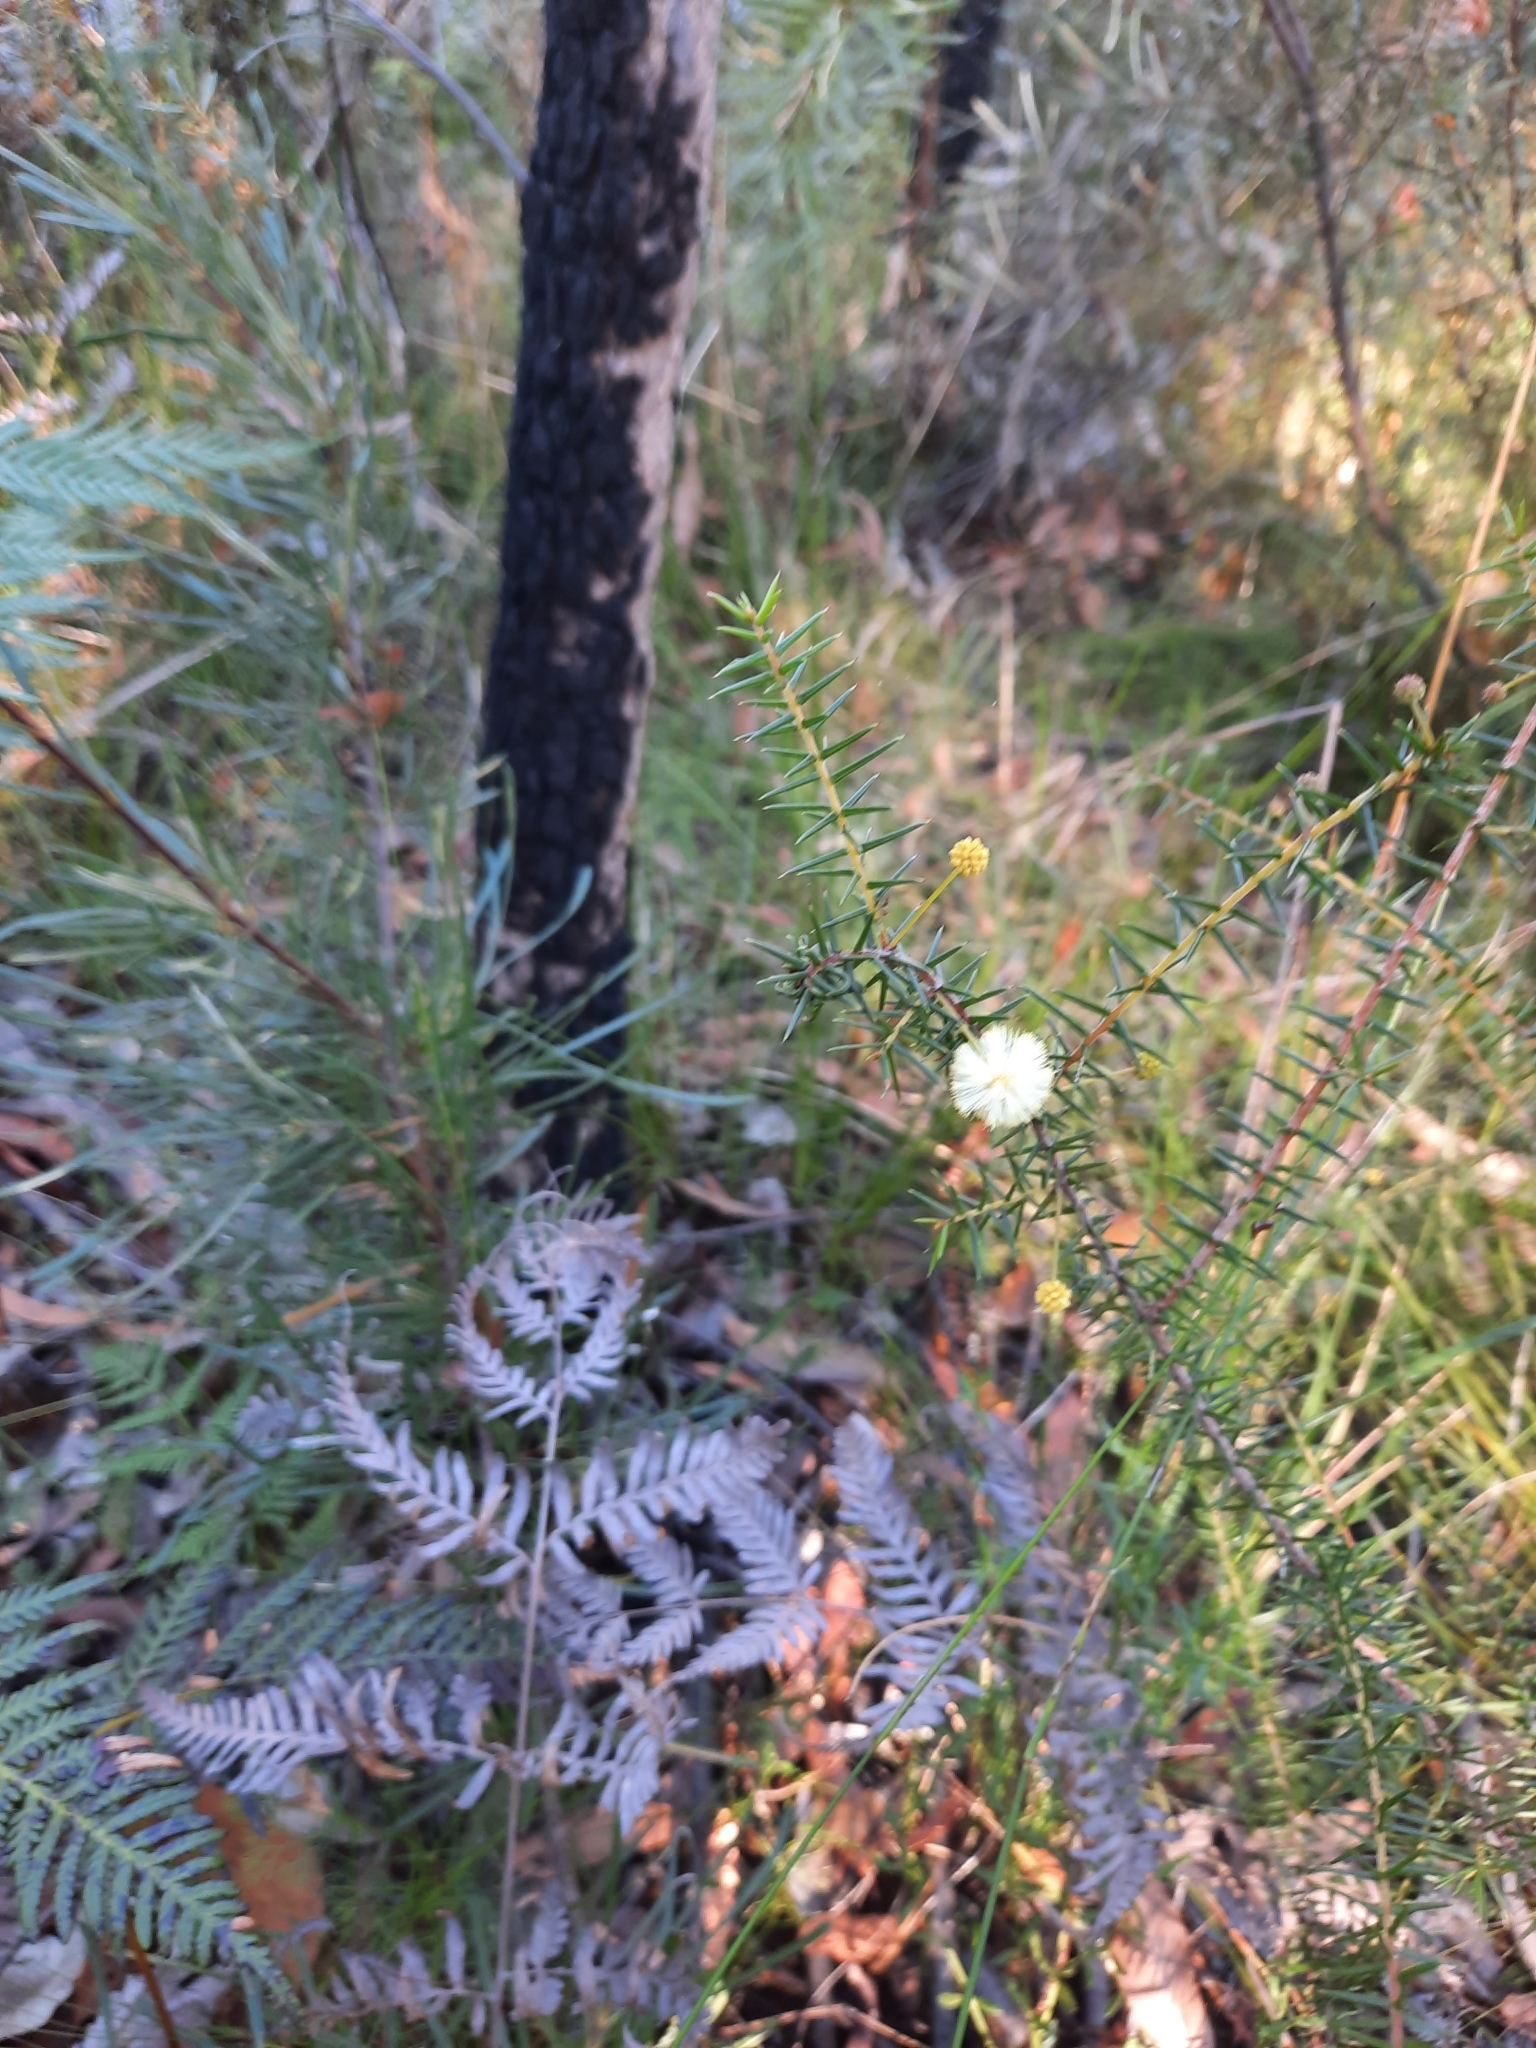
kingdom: Plantae
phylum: Tracheophyta
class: Magnoliopsida
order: Fabales
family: Fabaceae
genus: Acacia
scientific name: Acacia ulicifolia
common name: Juniper wattle
